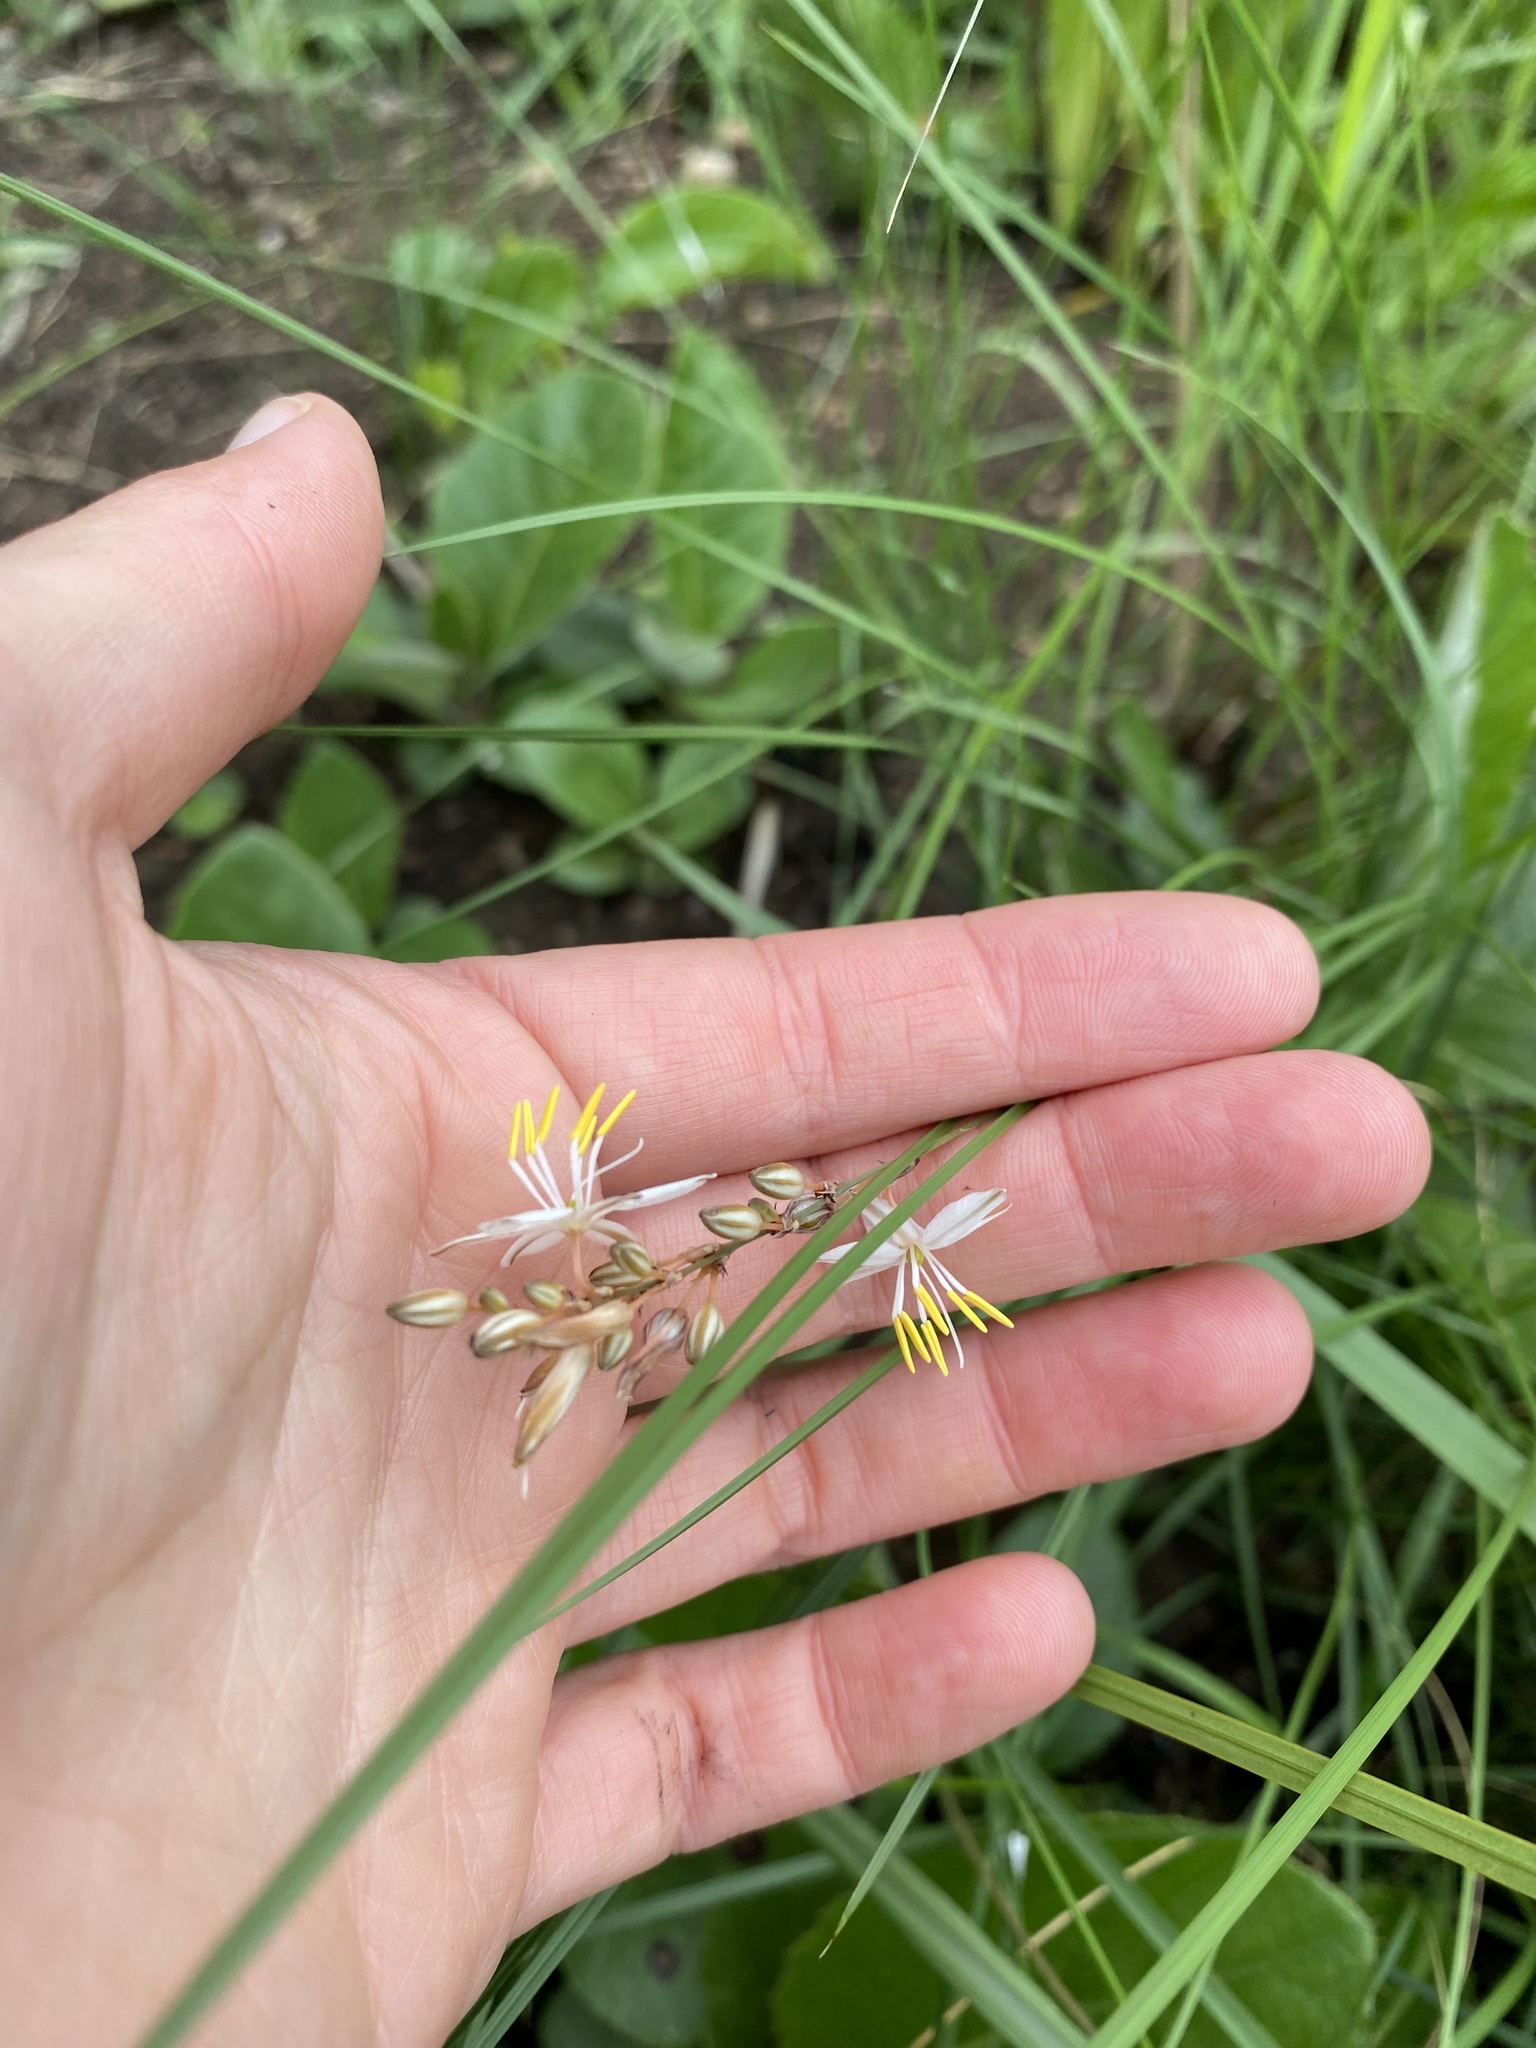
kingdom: Plantae
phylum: Tracheophyta
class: Liliopsida
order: Asparagales
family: Asparagaceae
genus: Chlorophytum
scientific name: Chlorophytum saundersiae
